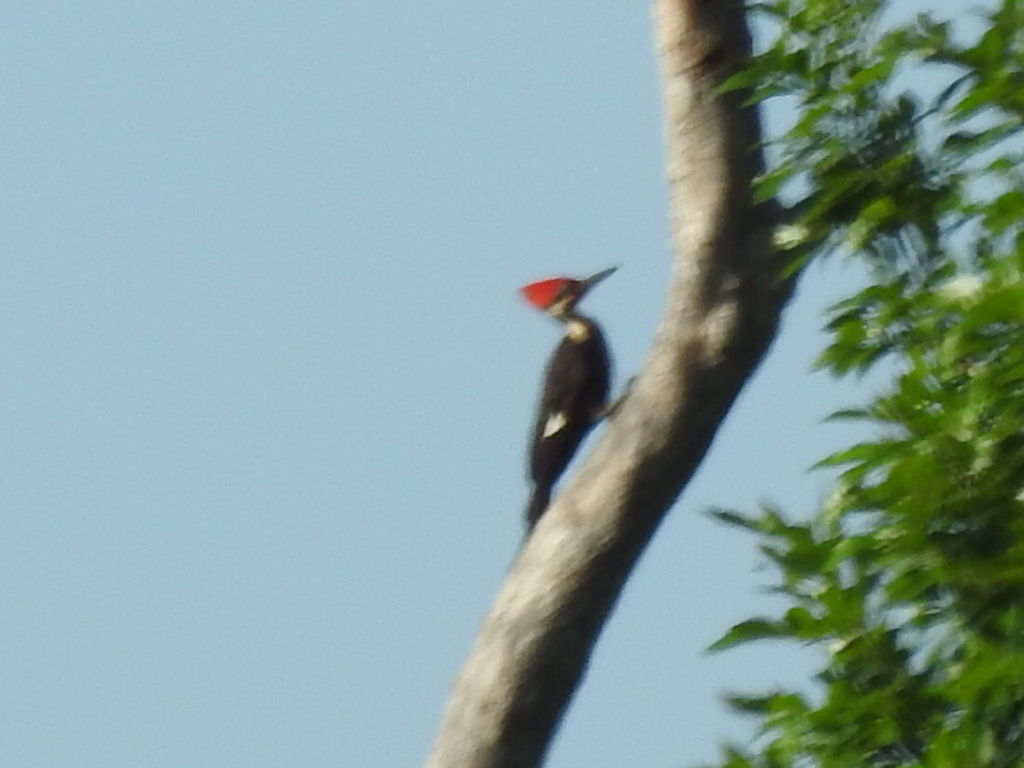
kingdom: Animalia
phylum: Chordata
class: Aves
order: Piciformes
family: Picidae
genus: Dryocopus
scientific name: Dryocopus pileatus
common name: Pileated woodpecker
